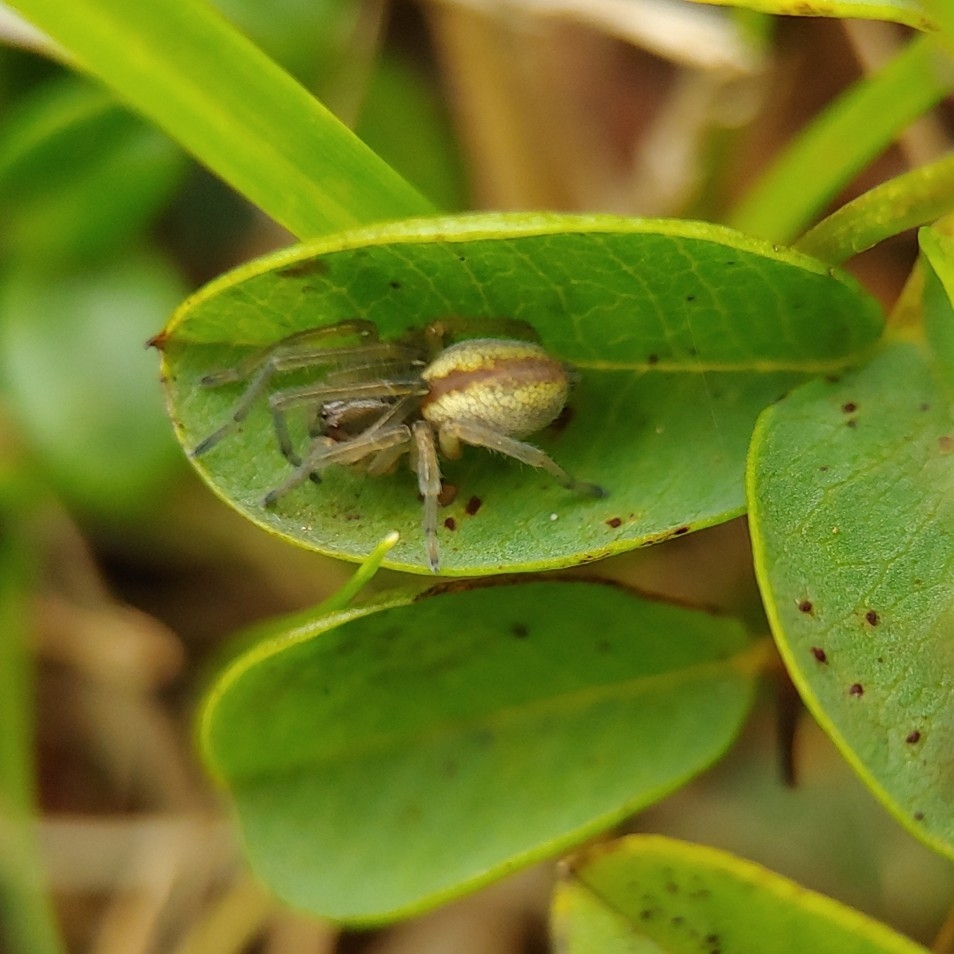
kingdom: Animalia
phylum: Arthropoda
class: Arachnida
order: Araneae
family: Cheiracanthiidae
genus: Cheiracanthium
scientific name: Cheiracanthium erraticum
